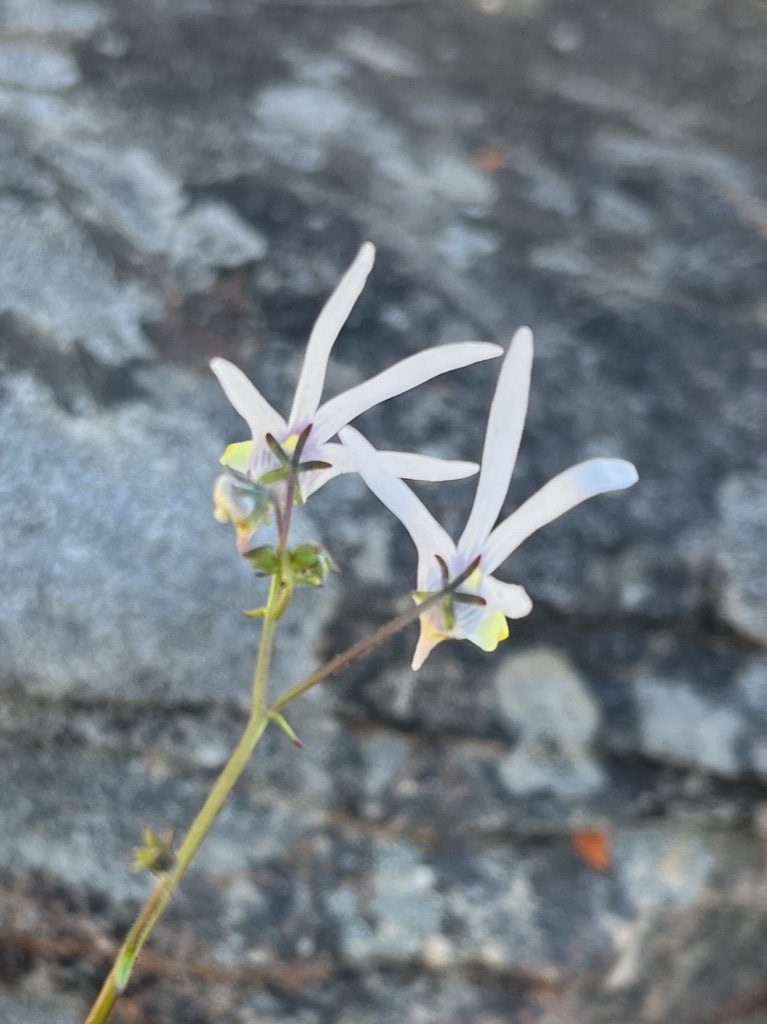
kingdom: Plantae
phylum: Tracheophyta
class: Magnoliopsida
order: Lamiales
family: Scrophulariaceae
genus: Nemesia
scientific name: Nemesia cheiranthus
